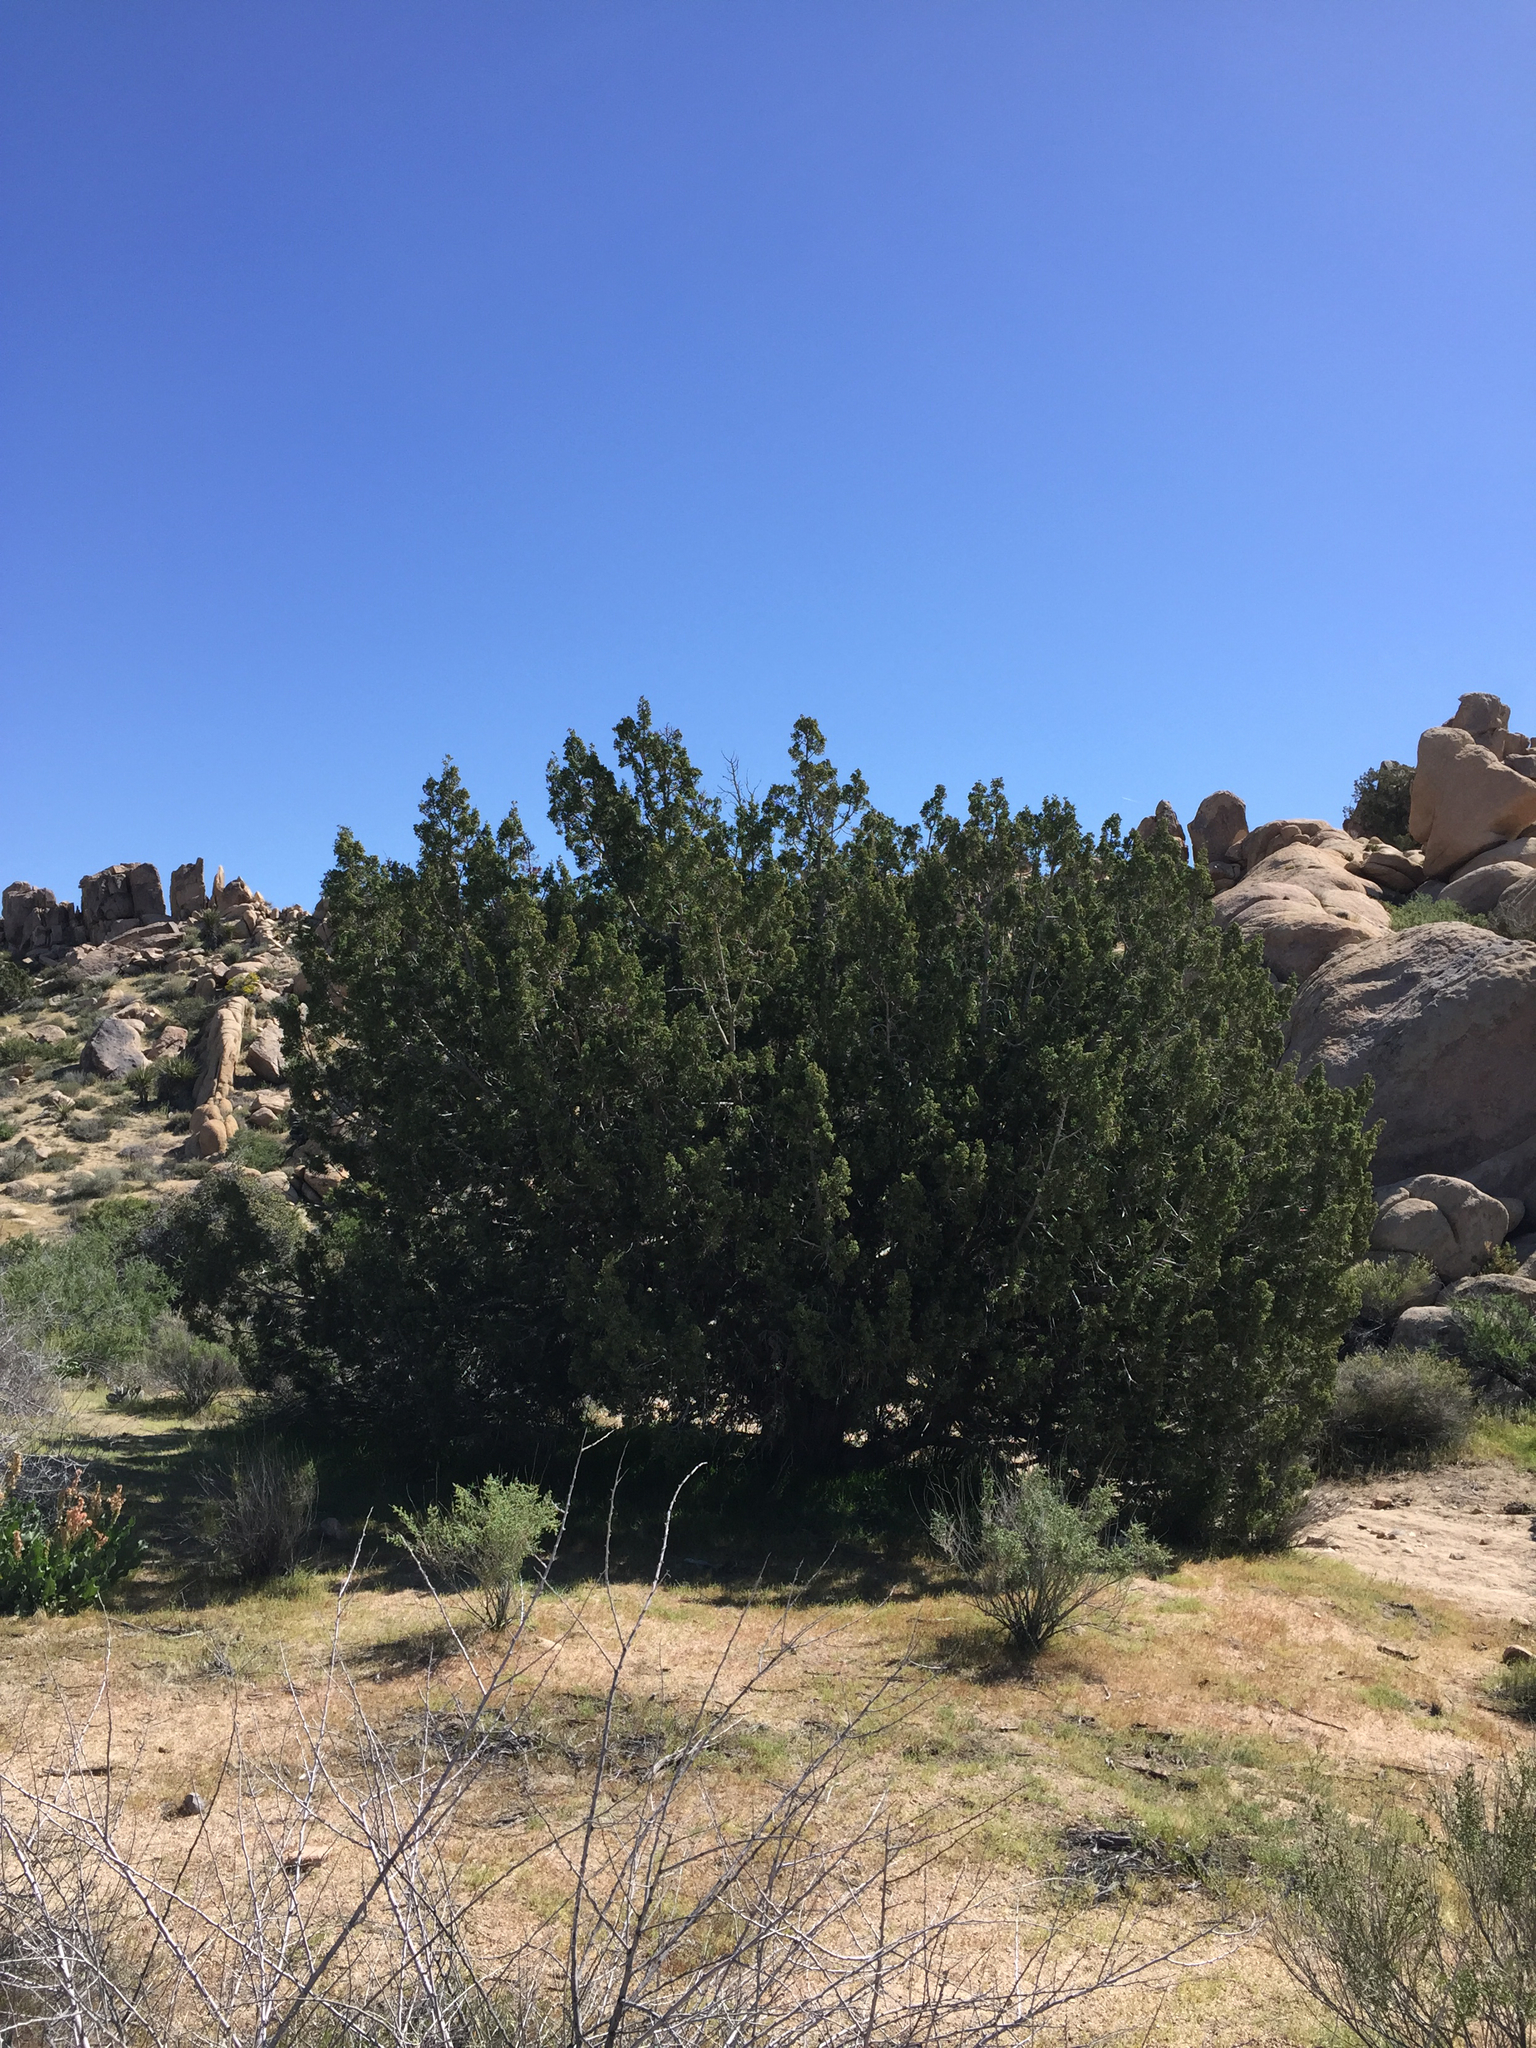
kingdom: Plantae
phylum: Tracheophyta
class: Pinopsida
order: Pinales
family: Cupressaceae
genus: Juniperus
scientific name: Juniperus californica
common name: California juniper
